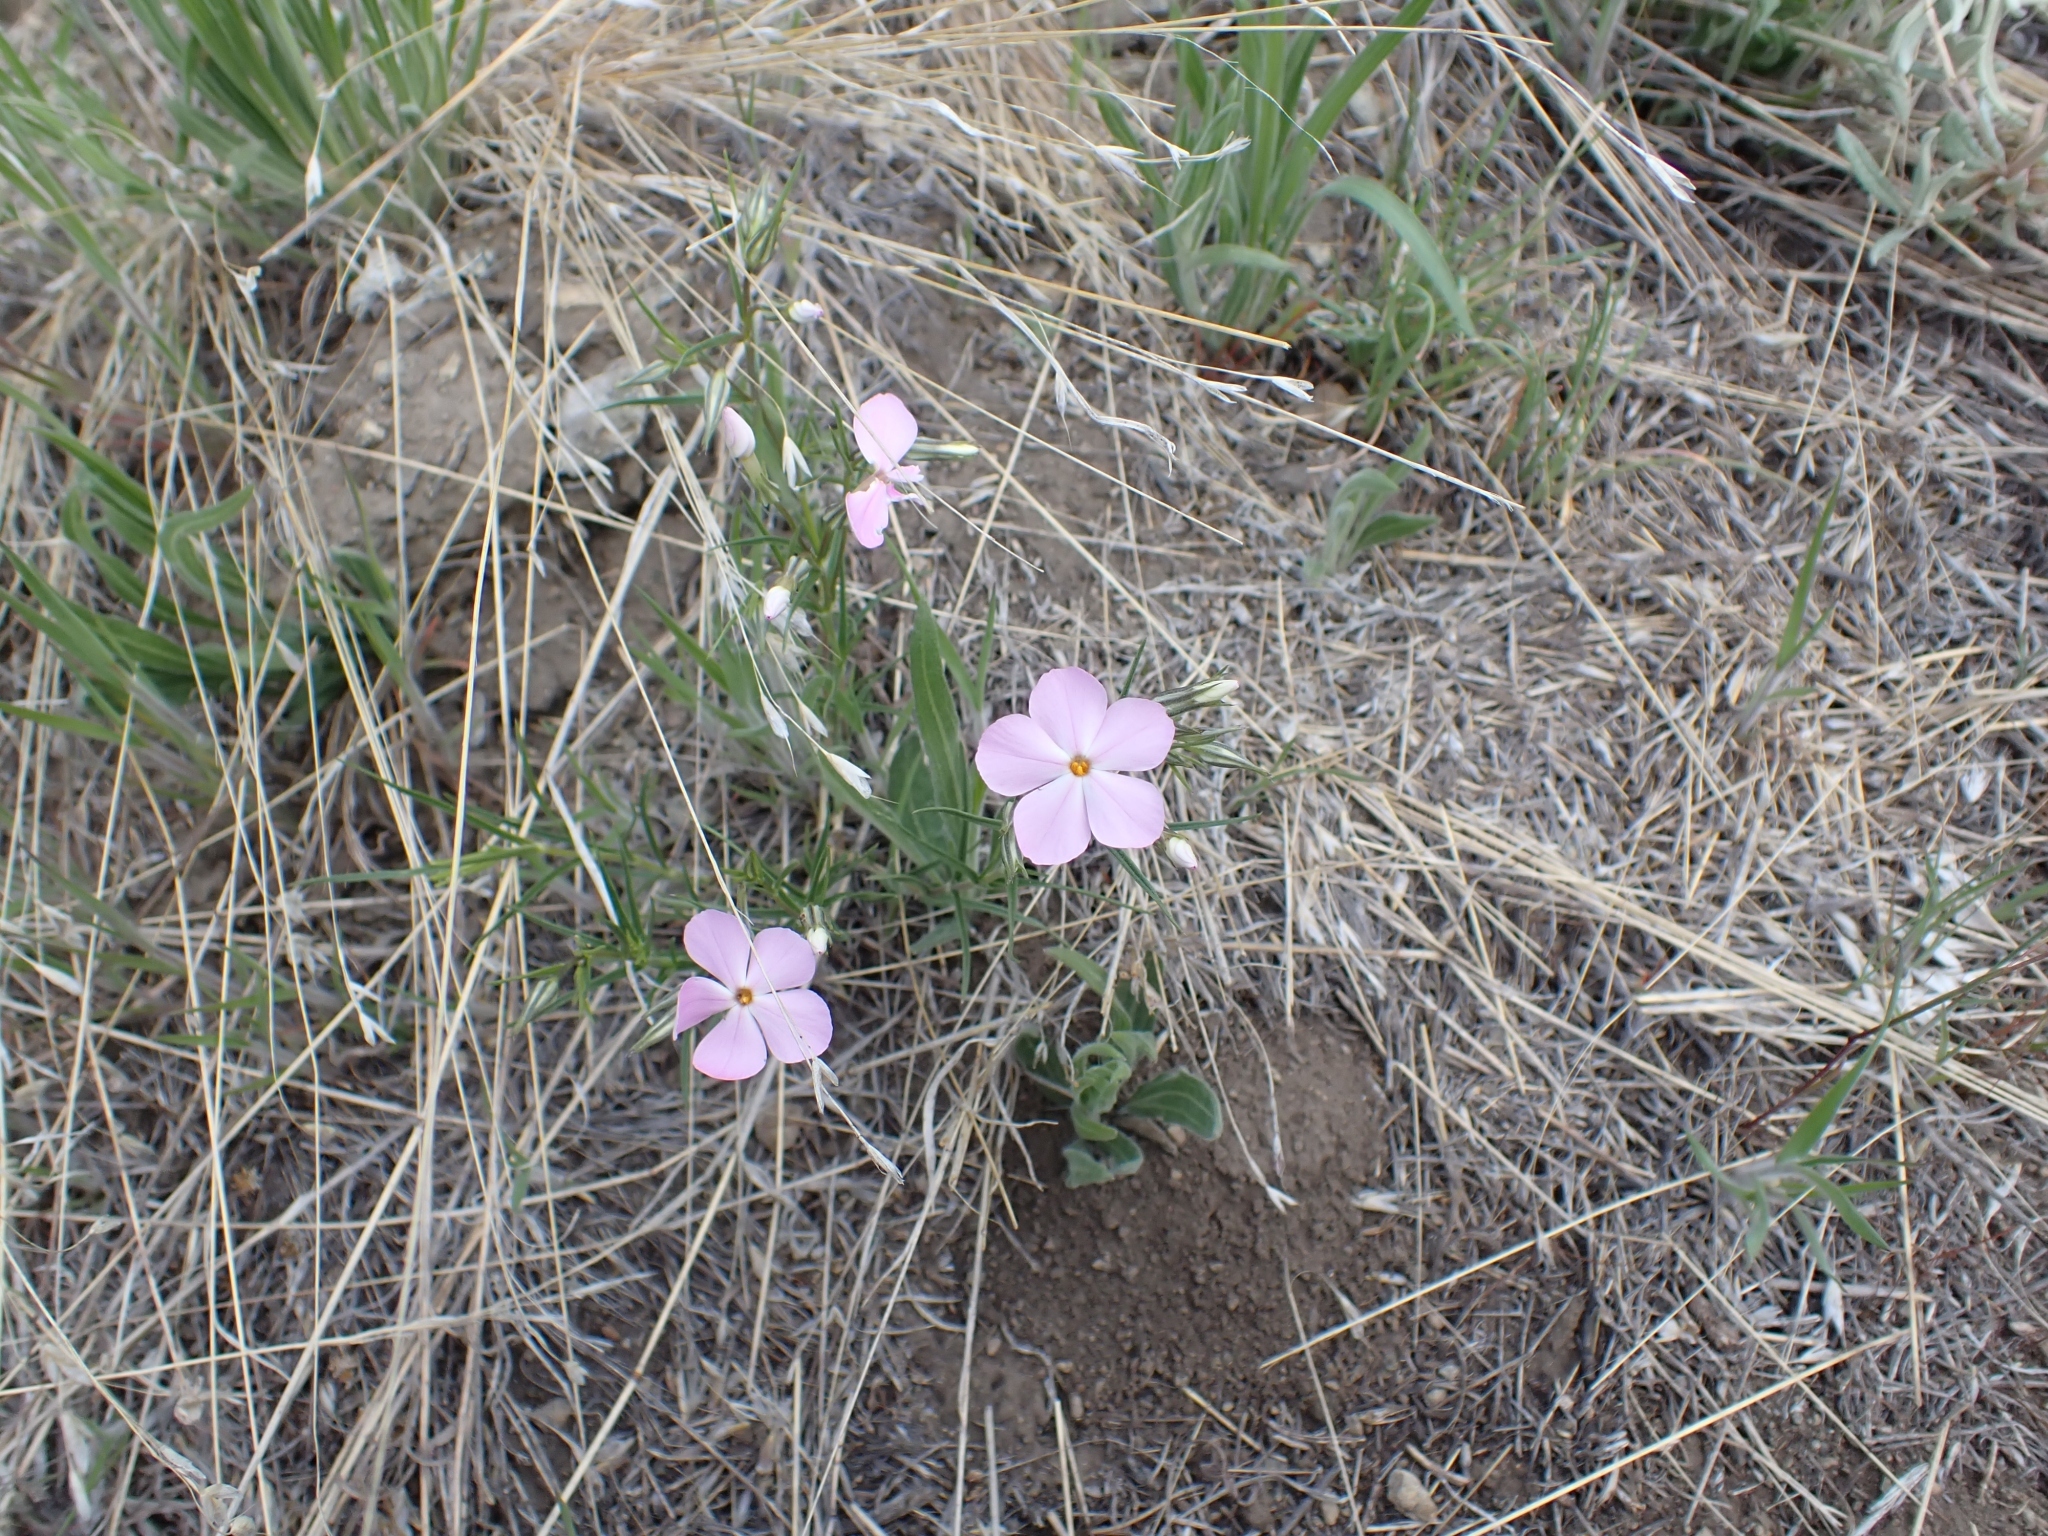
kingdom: Plantae
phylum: Tracheophyta
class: Magnoliopsida
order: Ericales
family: Polemoniaceae
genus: Phlox
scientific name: Phlox longifolia
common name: Longleaf phlox
